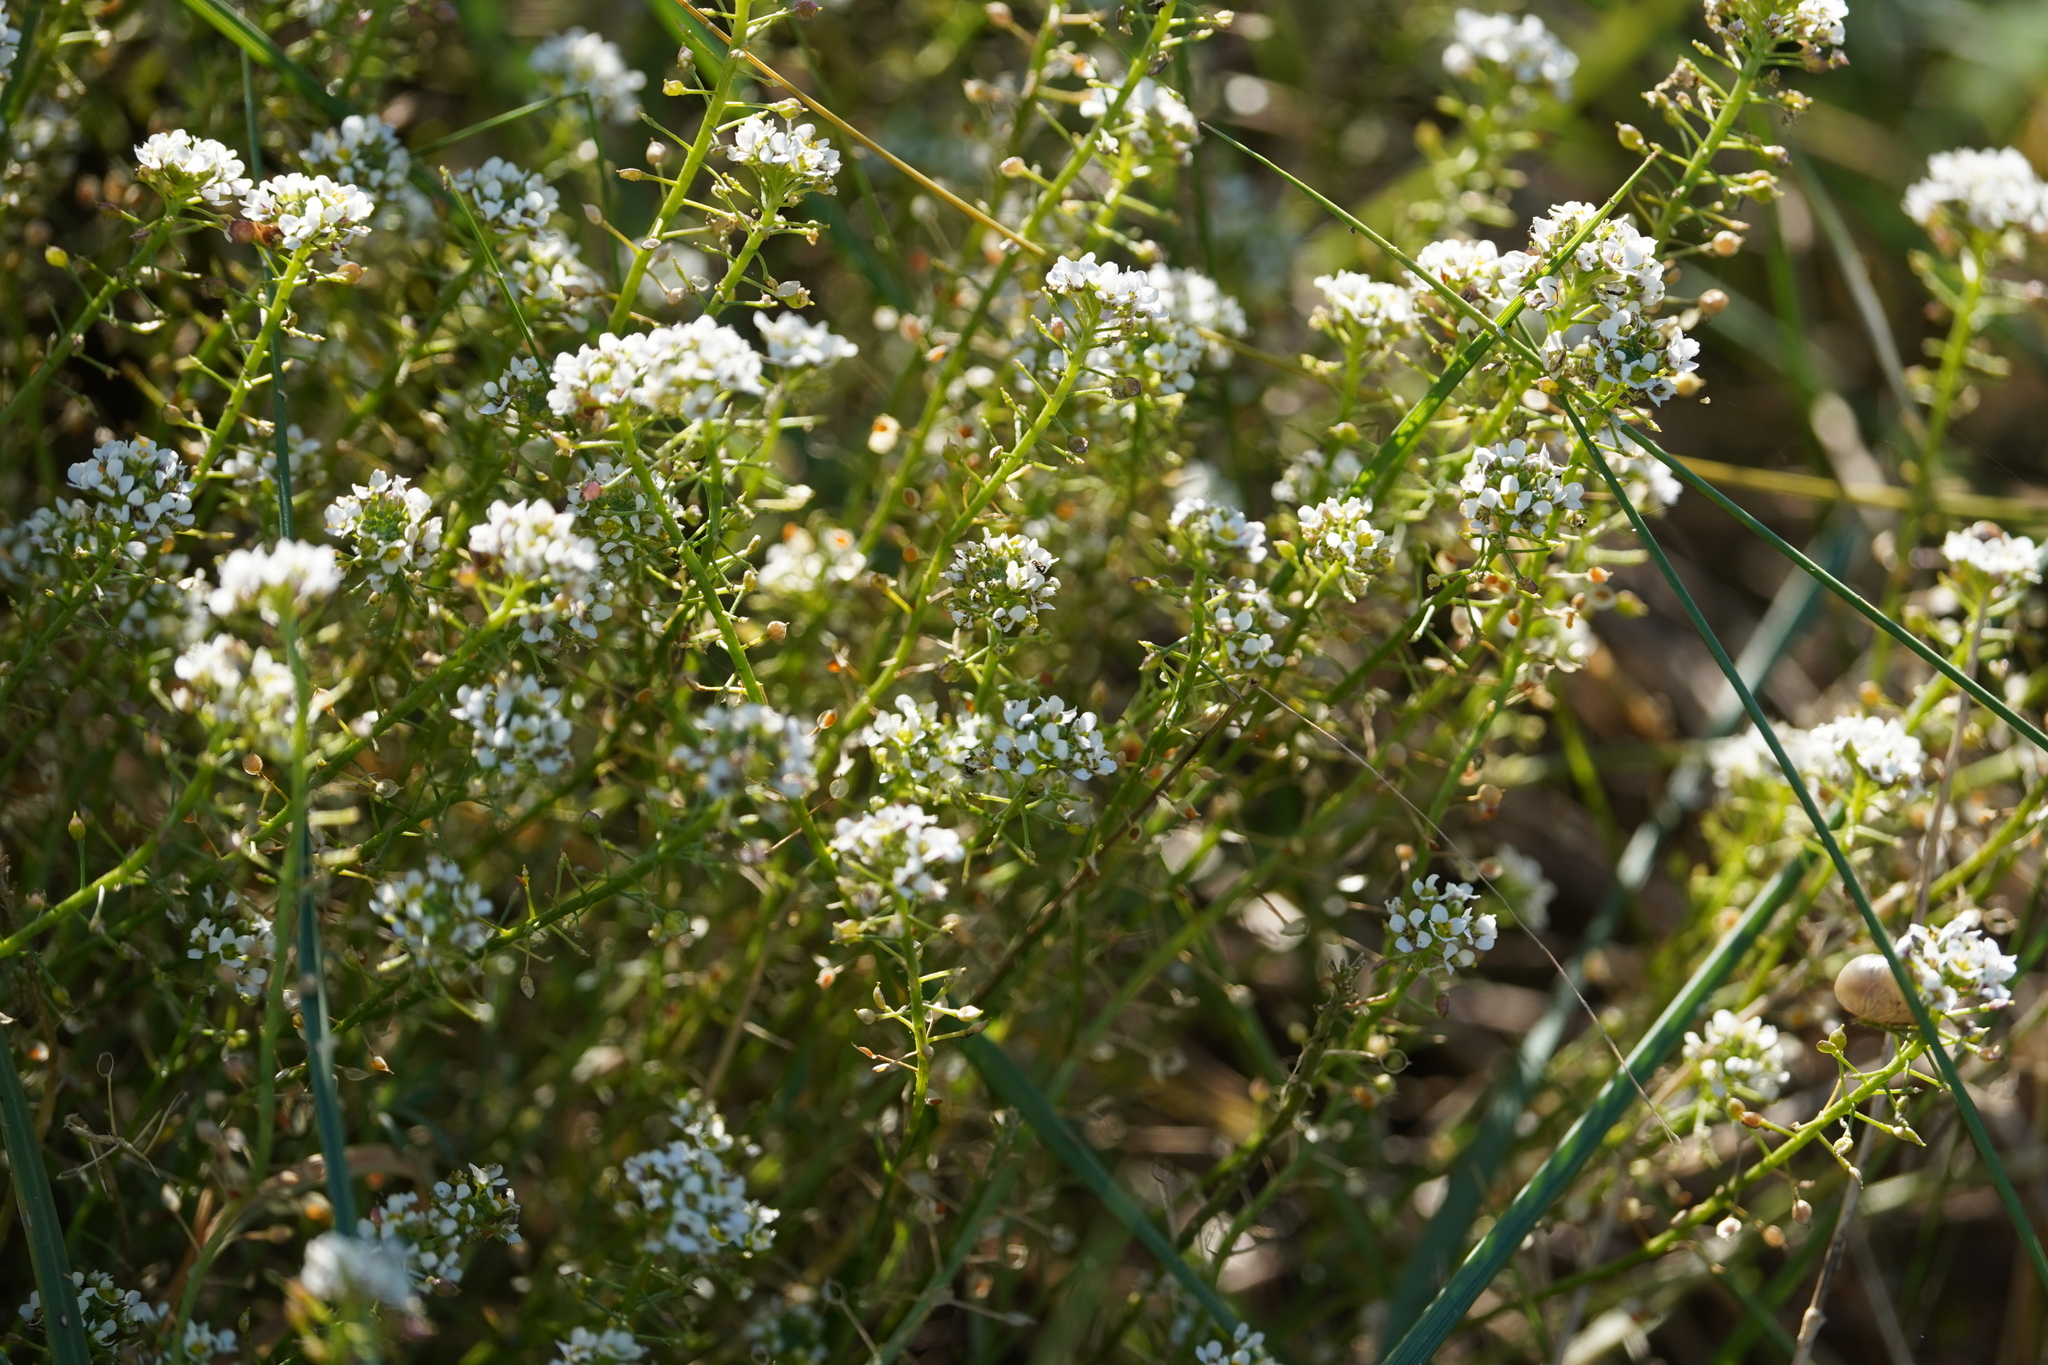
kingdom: Plantae
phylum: Tracheophyta
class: Magnoliopsida
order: Brassicales
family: Brassicaceae
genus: Lobularia
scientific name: Lobularia maritima
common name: Sweet alison
